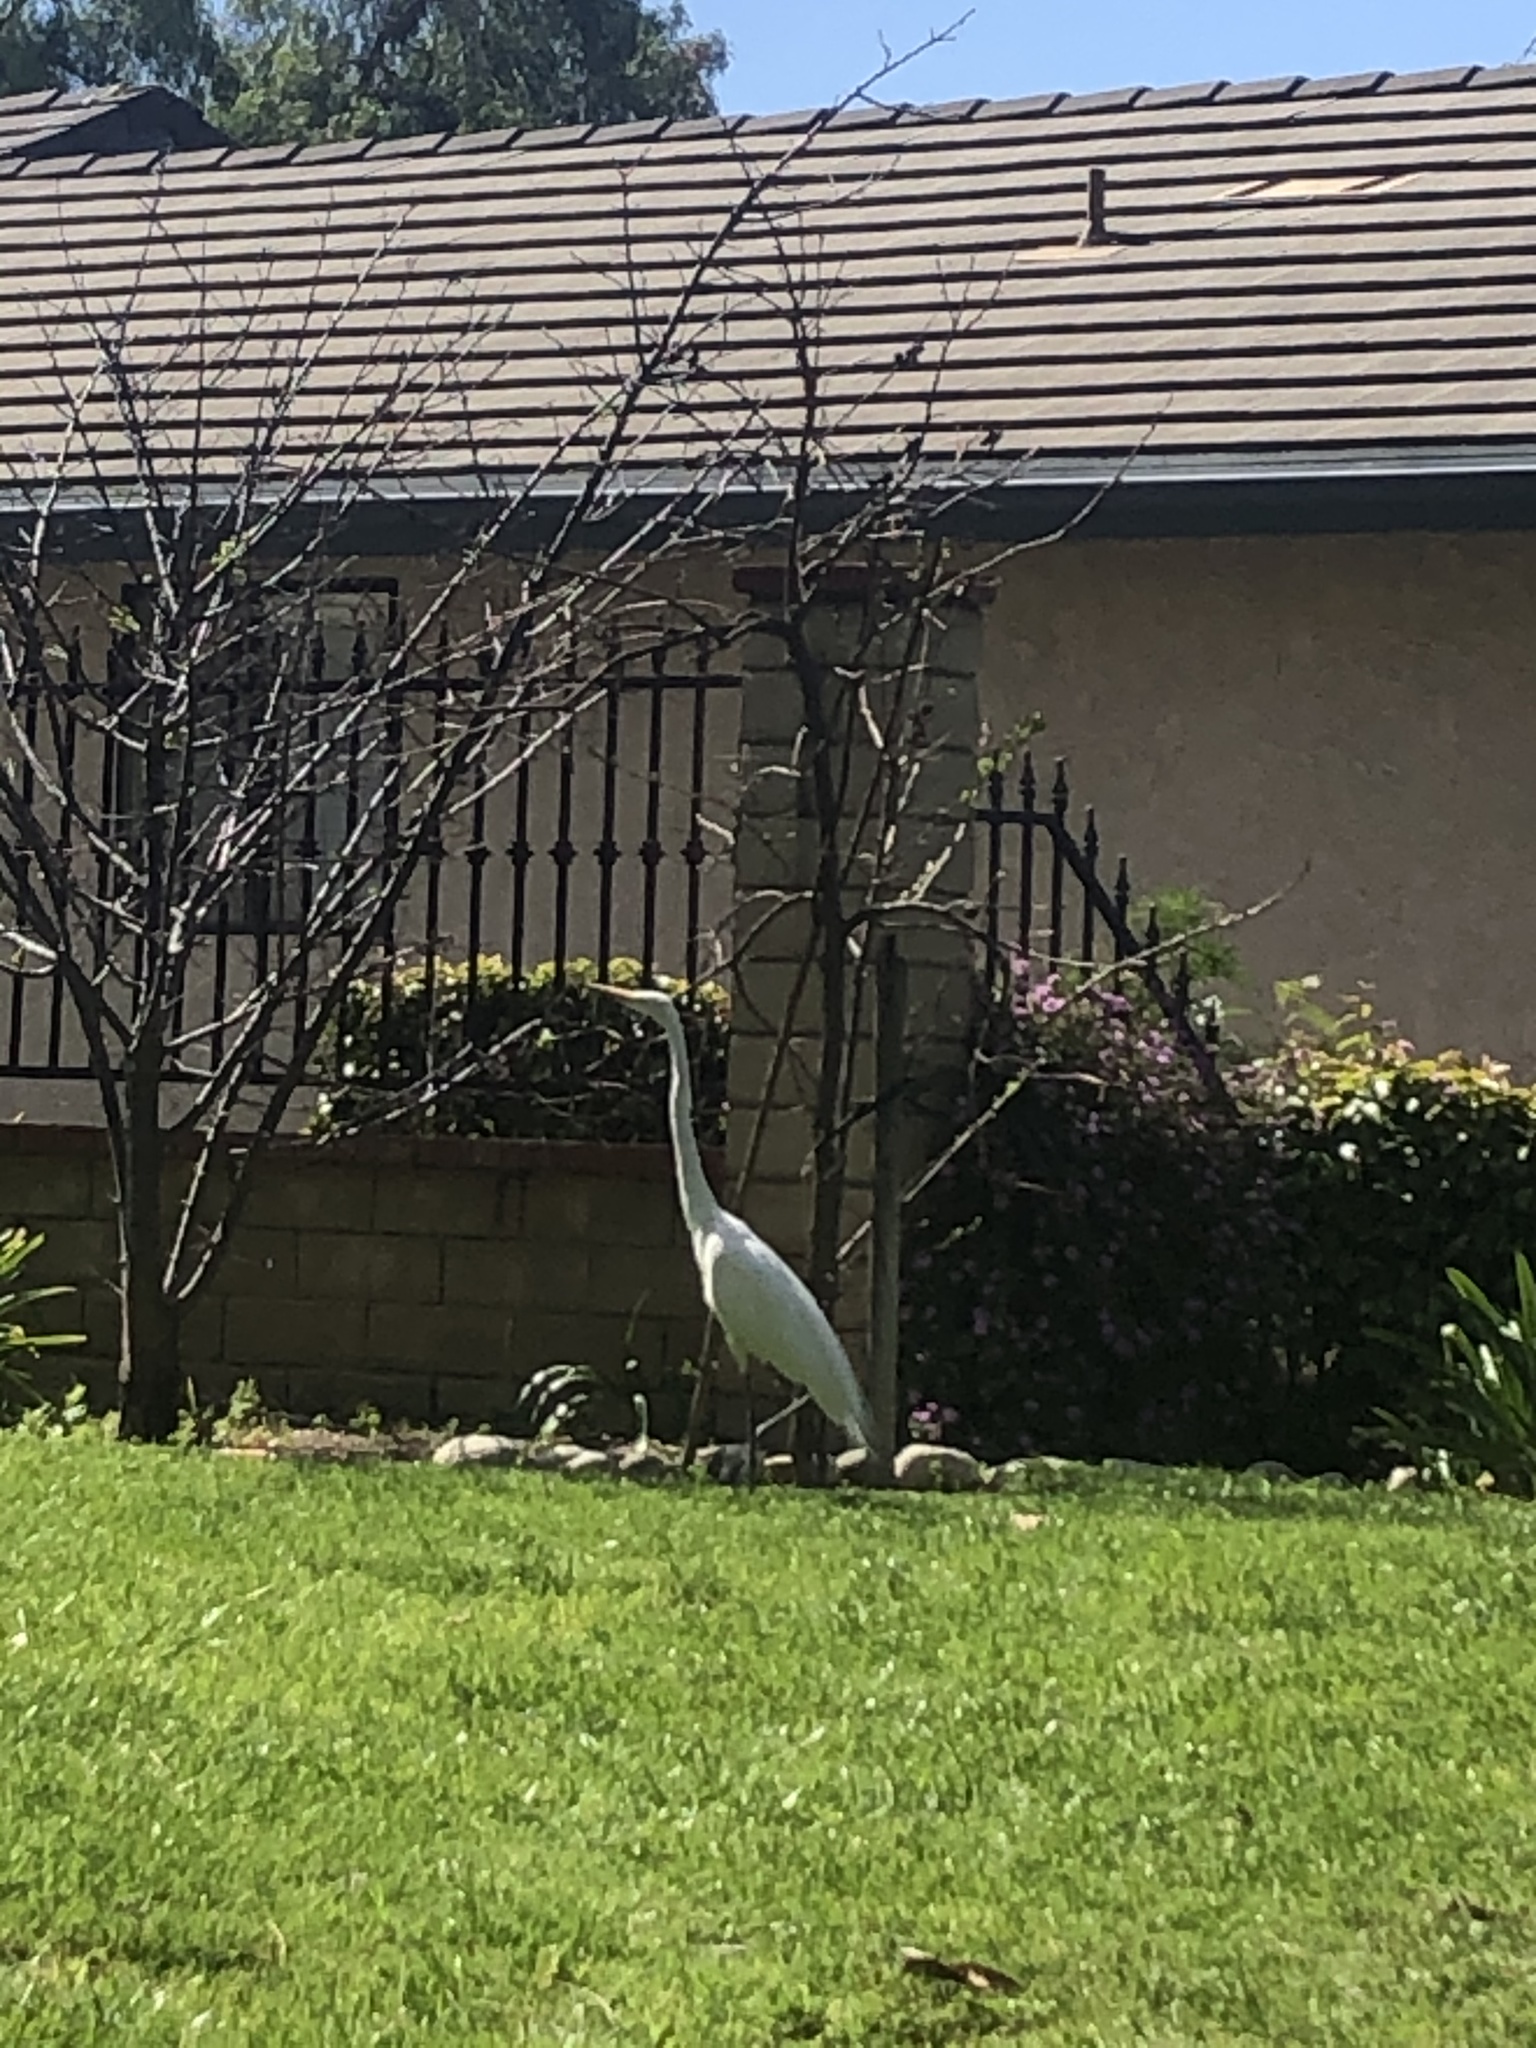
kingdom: Animalia
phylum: Chordata
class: Aves
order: Pelecaniformes
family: Ardeidae
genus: Ardea
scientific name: Ardea alba
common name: Great egret
